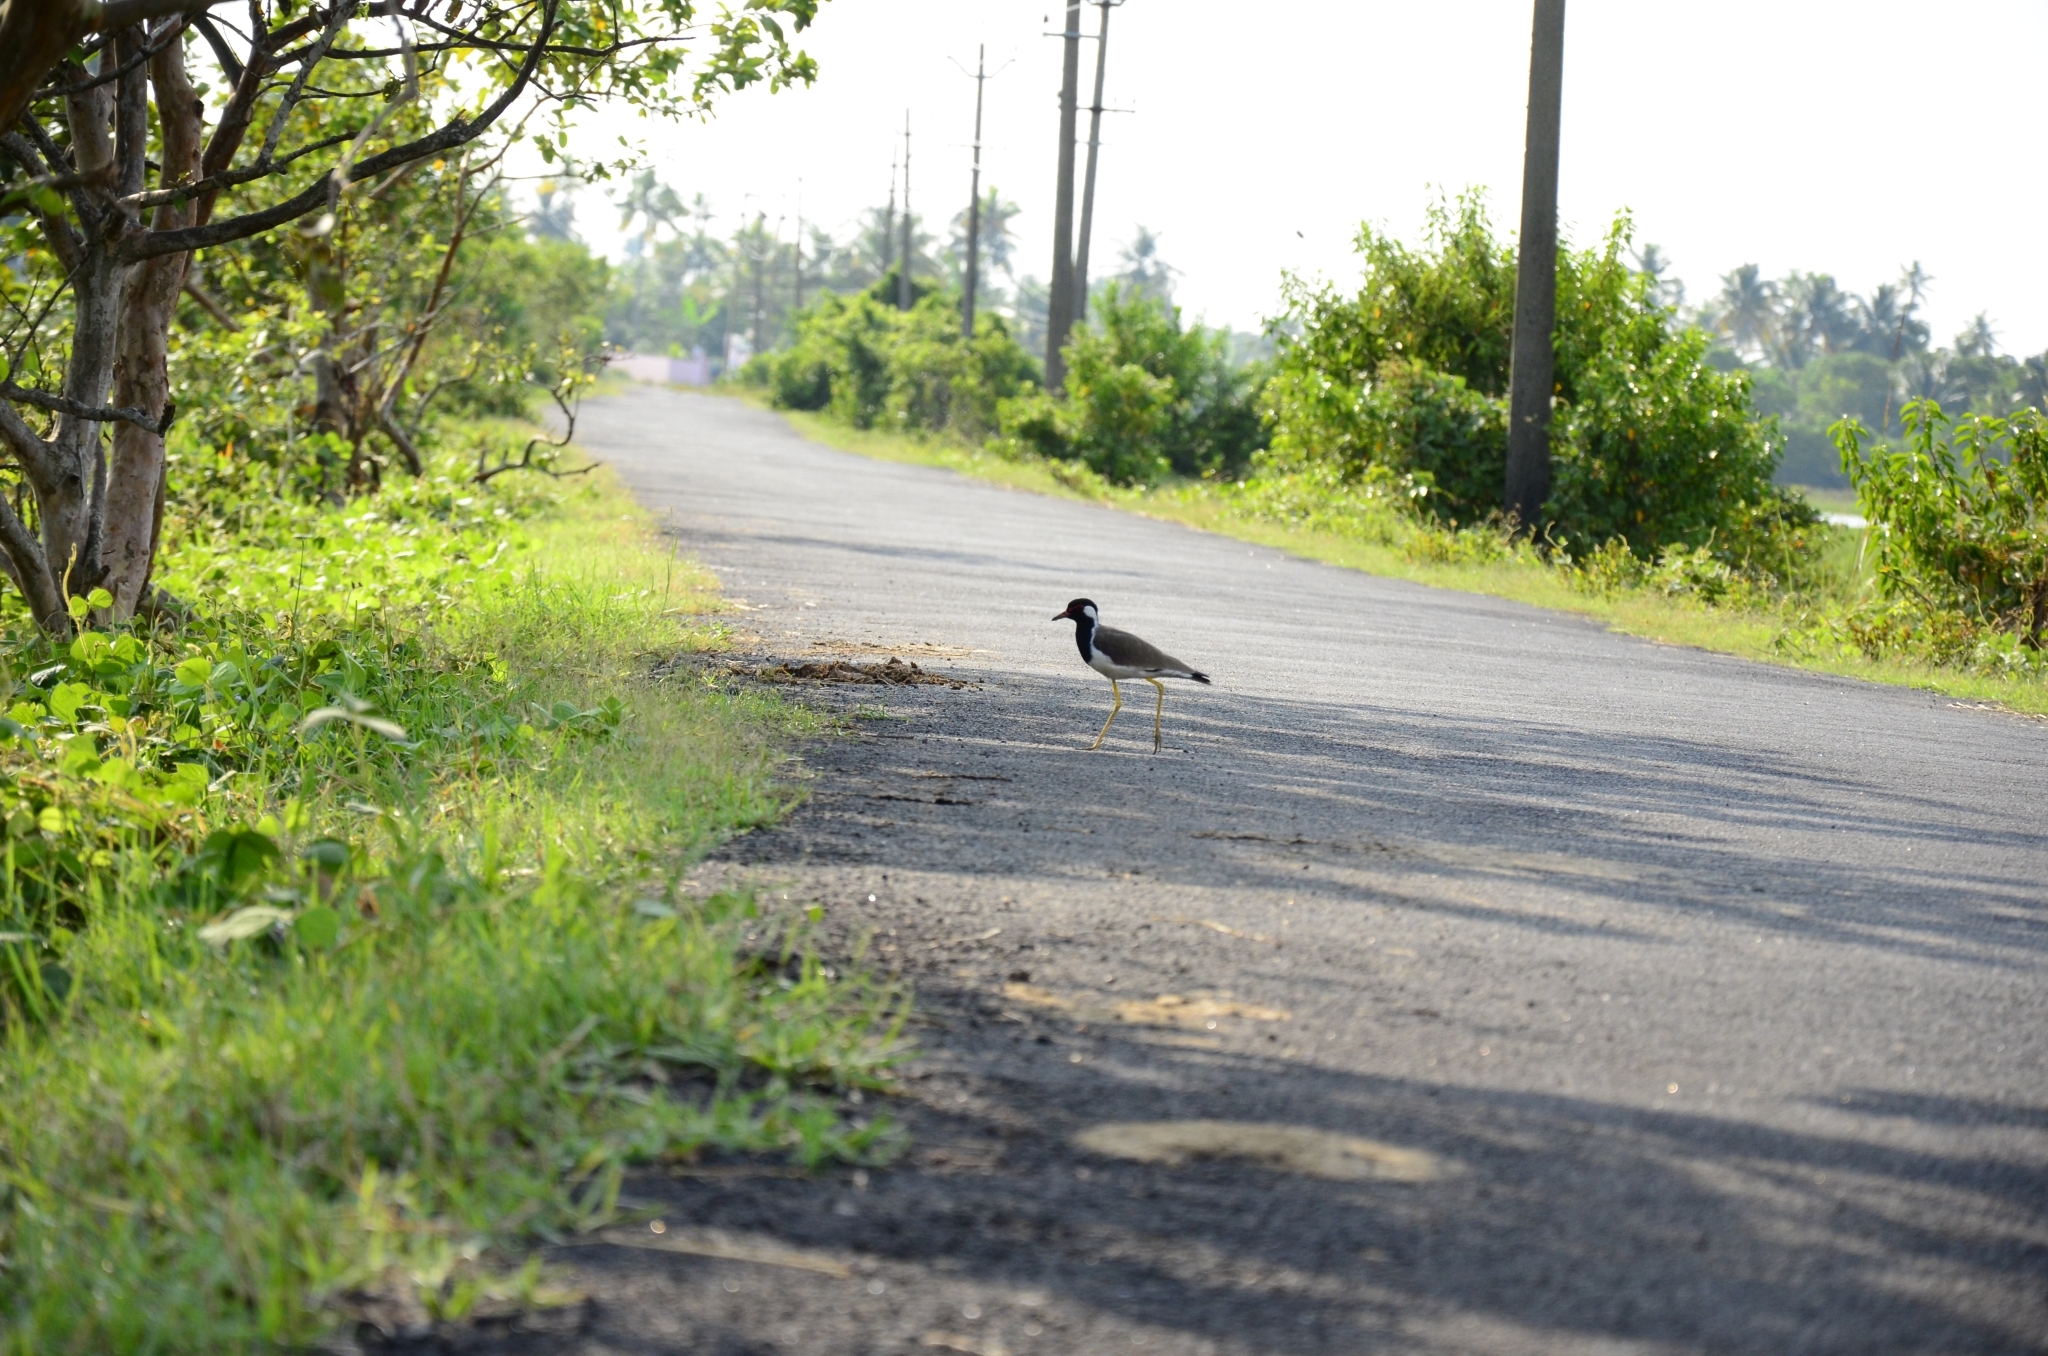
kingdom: Animalia
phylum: Chordata
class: Aves
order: Charadriiformes
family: Charadriidae
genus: Vanellus
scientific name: Vanellus indicus
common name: Red-wattled lapwing
